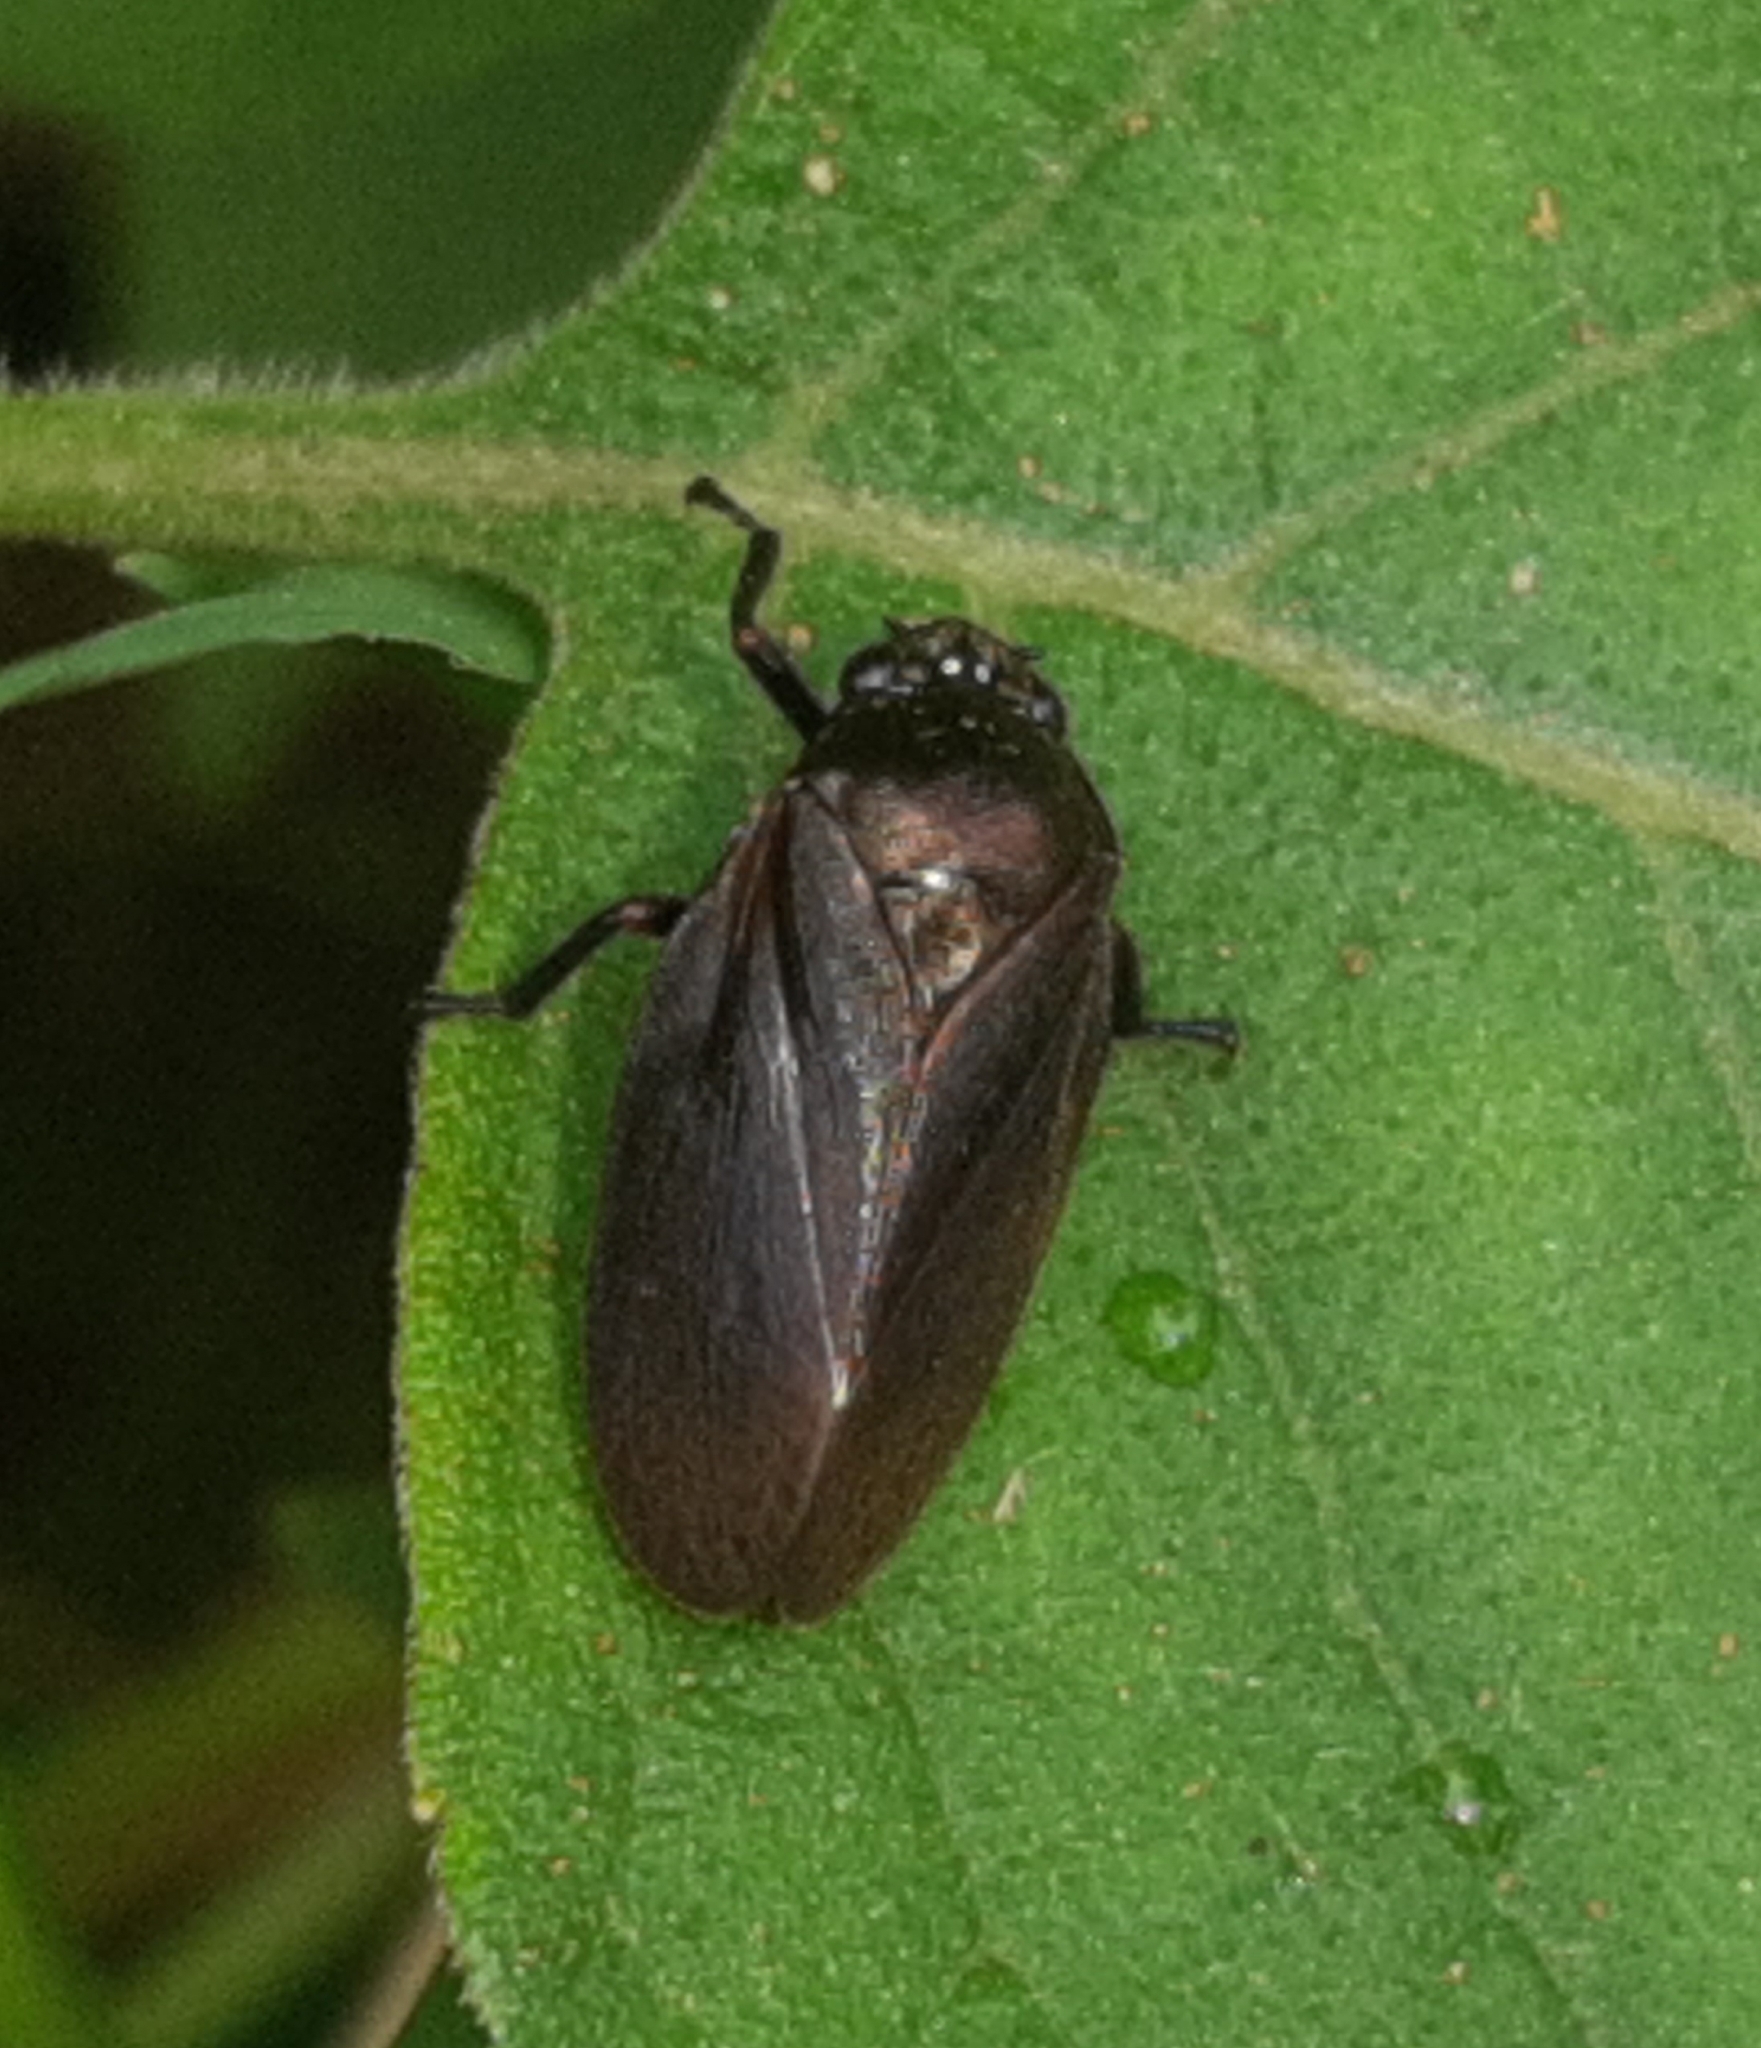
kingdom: Animalia
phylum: Arthropoda
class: Insecta
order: Hemiptera
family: Cercopidae
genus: Zulia
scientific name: Zulia vilior
